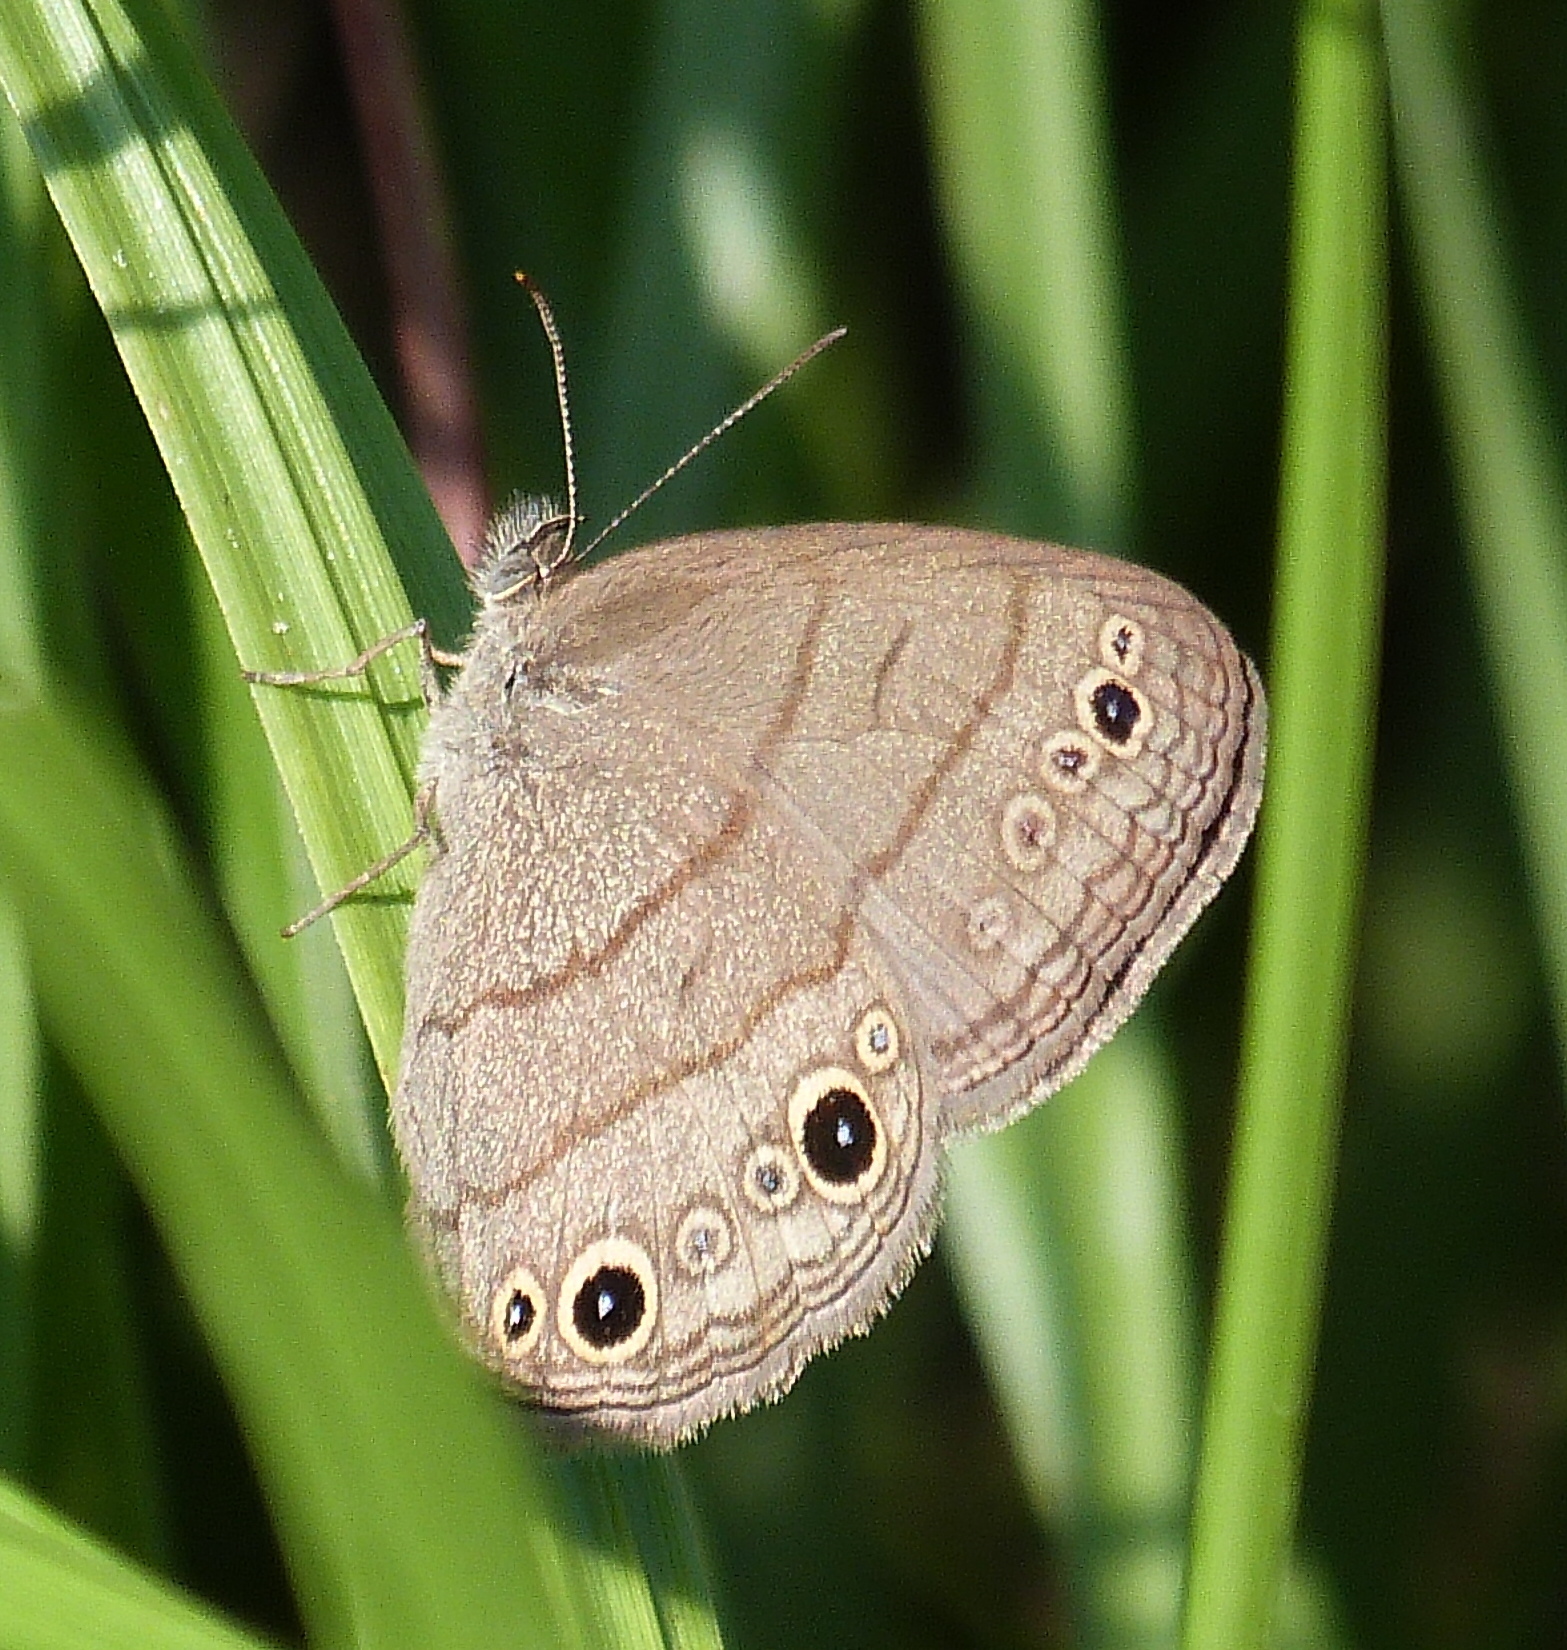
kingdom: Animalia
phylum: Arthropoda
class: Insecta
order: Lepidoptera
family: Nymphalidae
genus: Hermeuptychia
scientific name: Hermeuptychia hermes
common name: Hermes satyr
